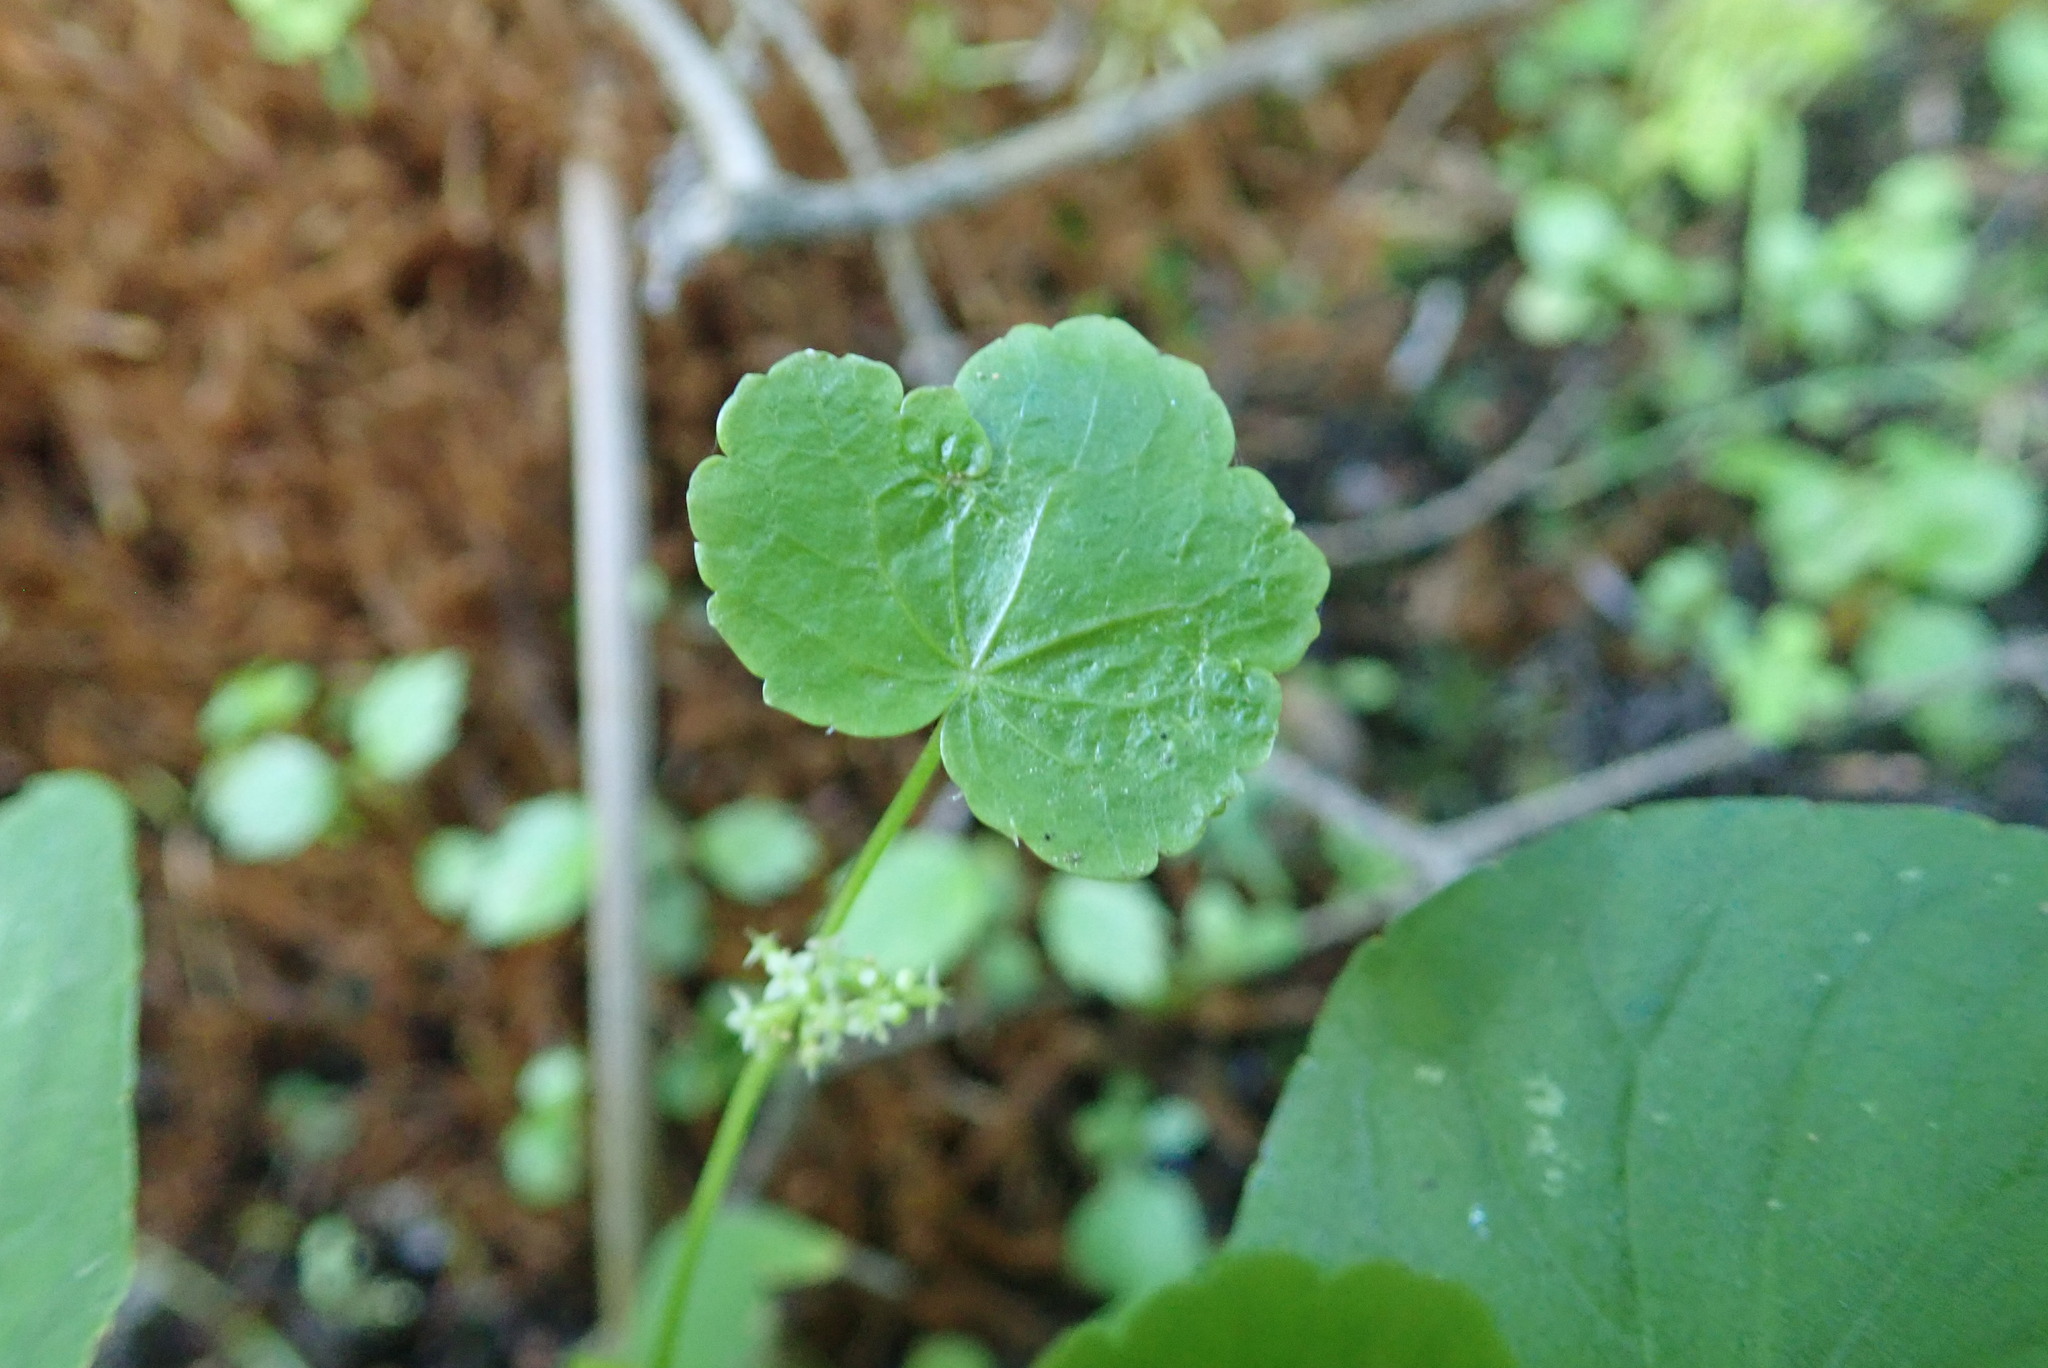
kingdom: Plantae
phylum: Tracheophyta
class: Magnoliopsida
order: Apiales
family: Araliaceae
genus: Hydrocotyle
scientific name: Hydrocotyle americana
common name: American water-pennywort
